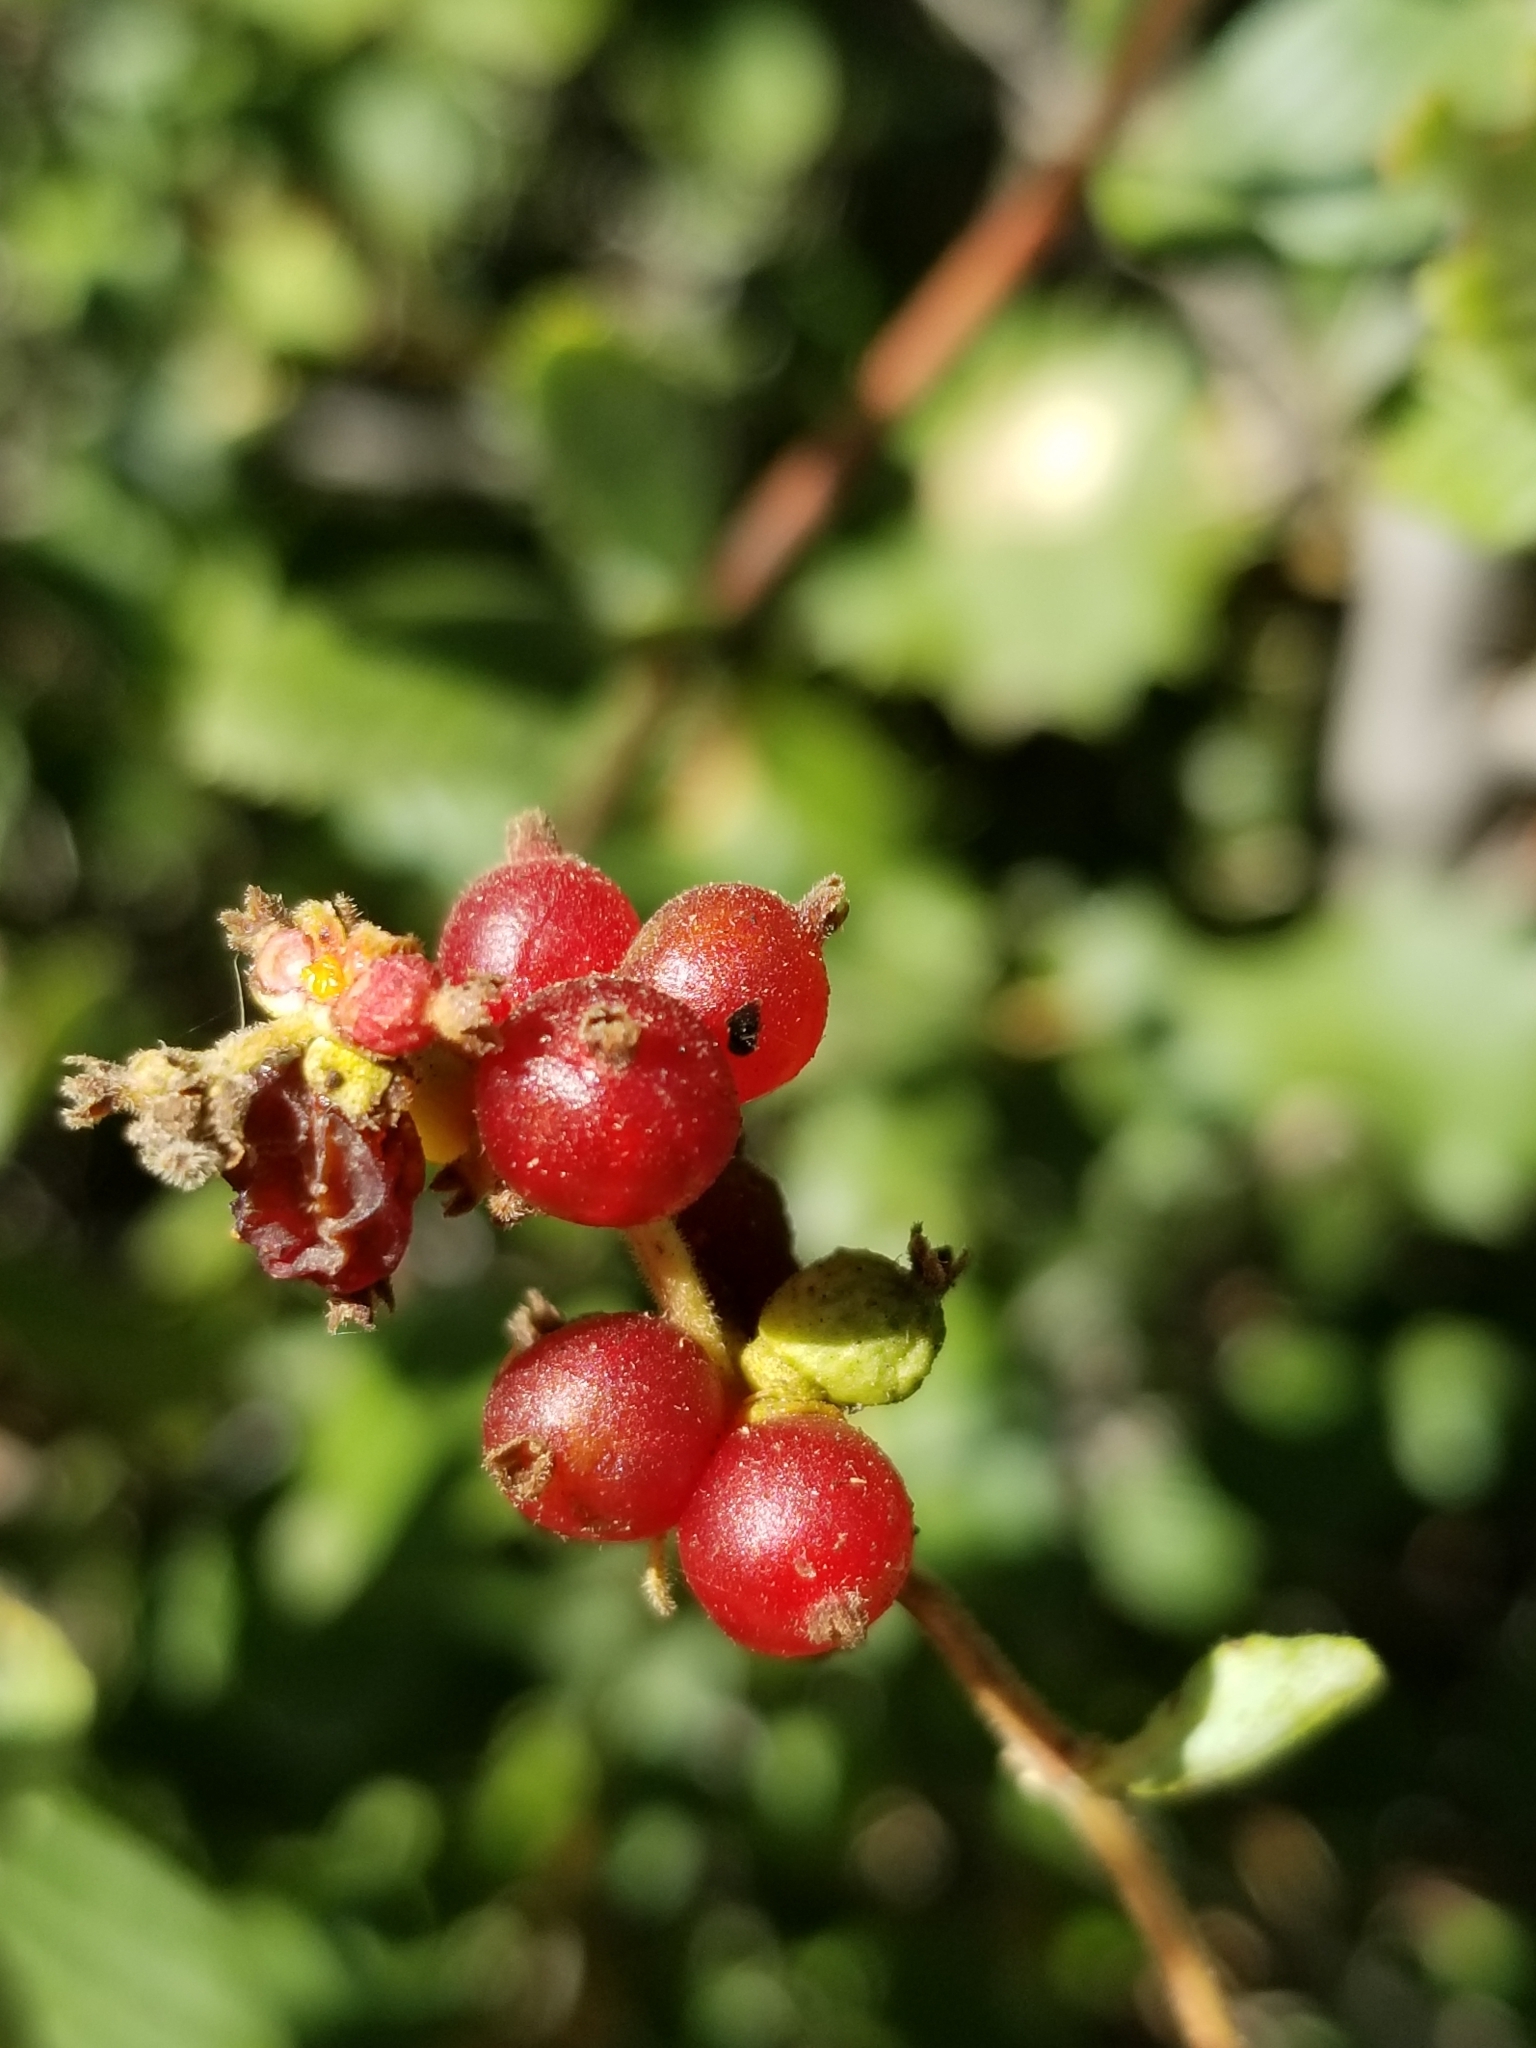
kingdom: Plantae
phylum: Tracheophyta
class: Magnoliopsida
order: Dipsacales
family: Caprifoliaceae
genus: Lonicera
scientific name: Lonicera subspicata
